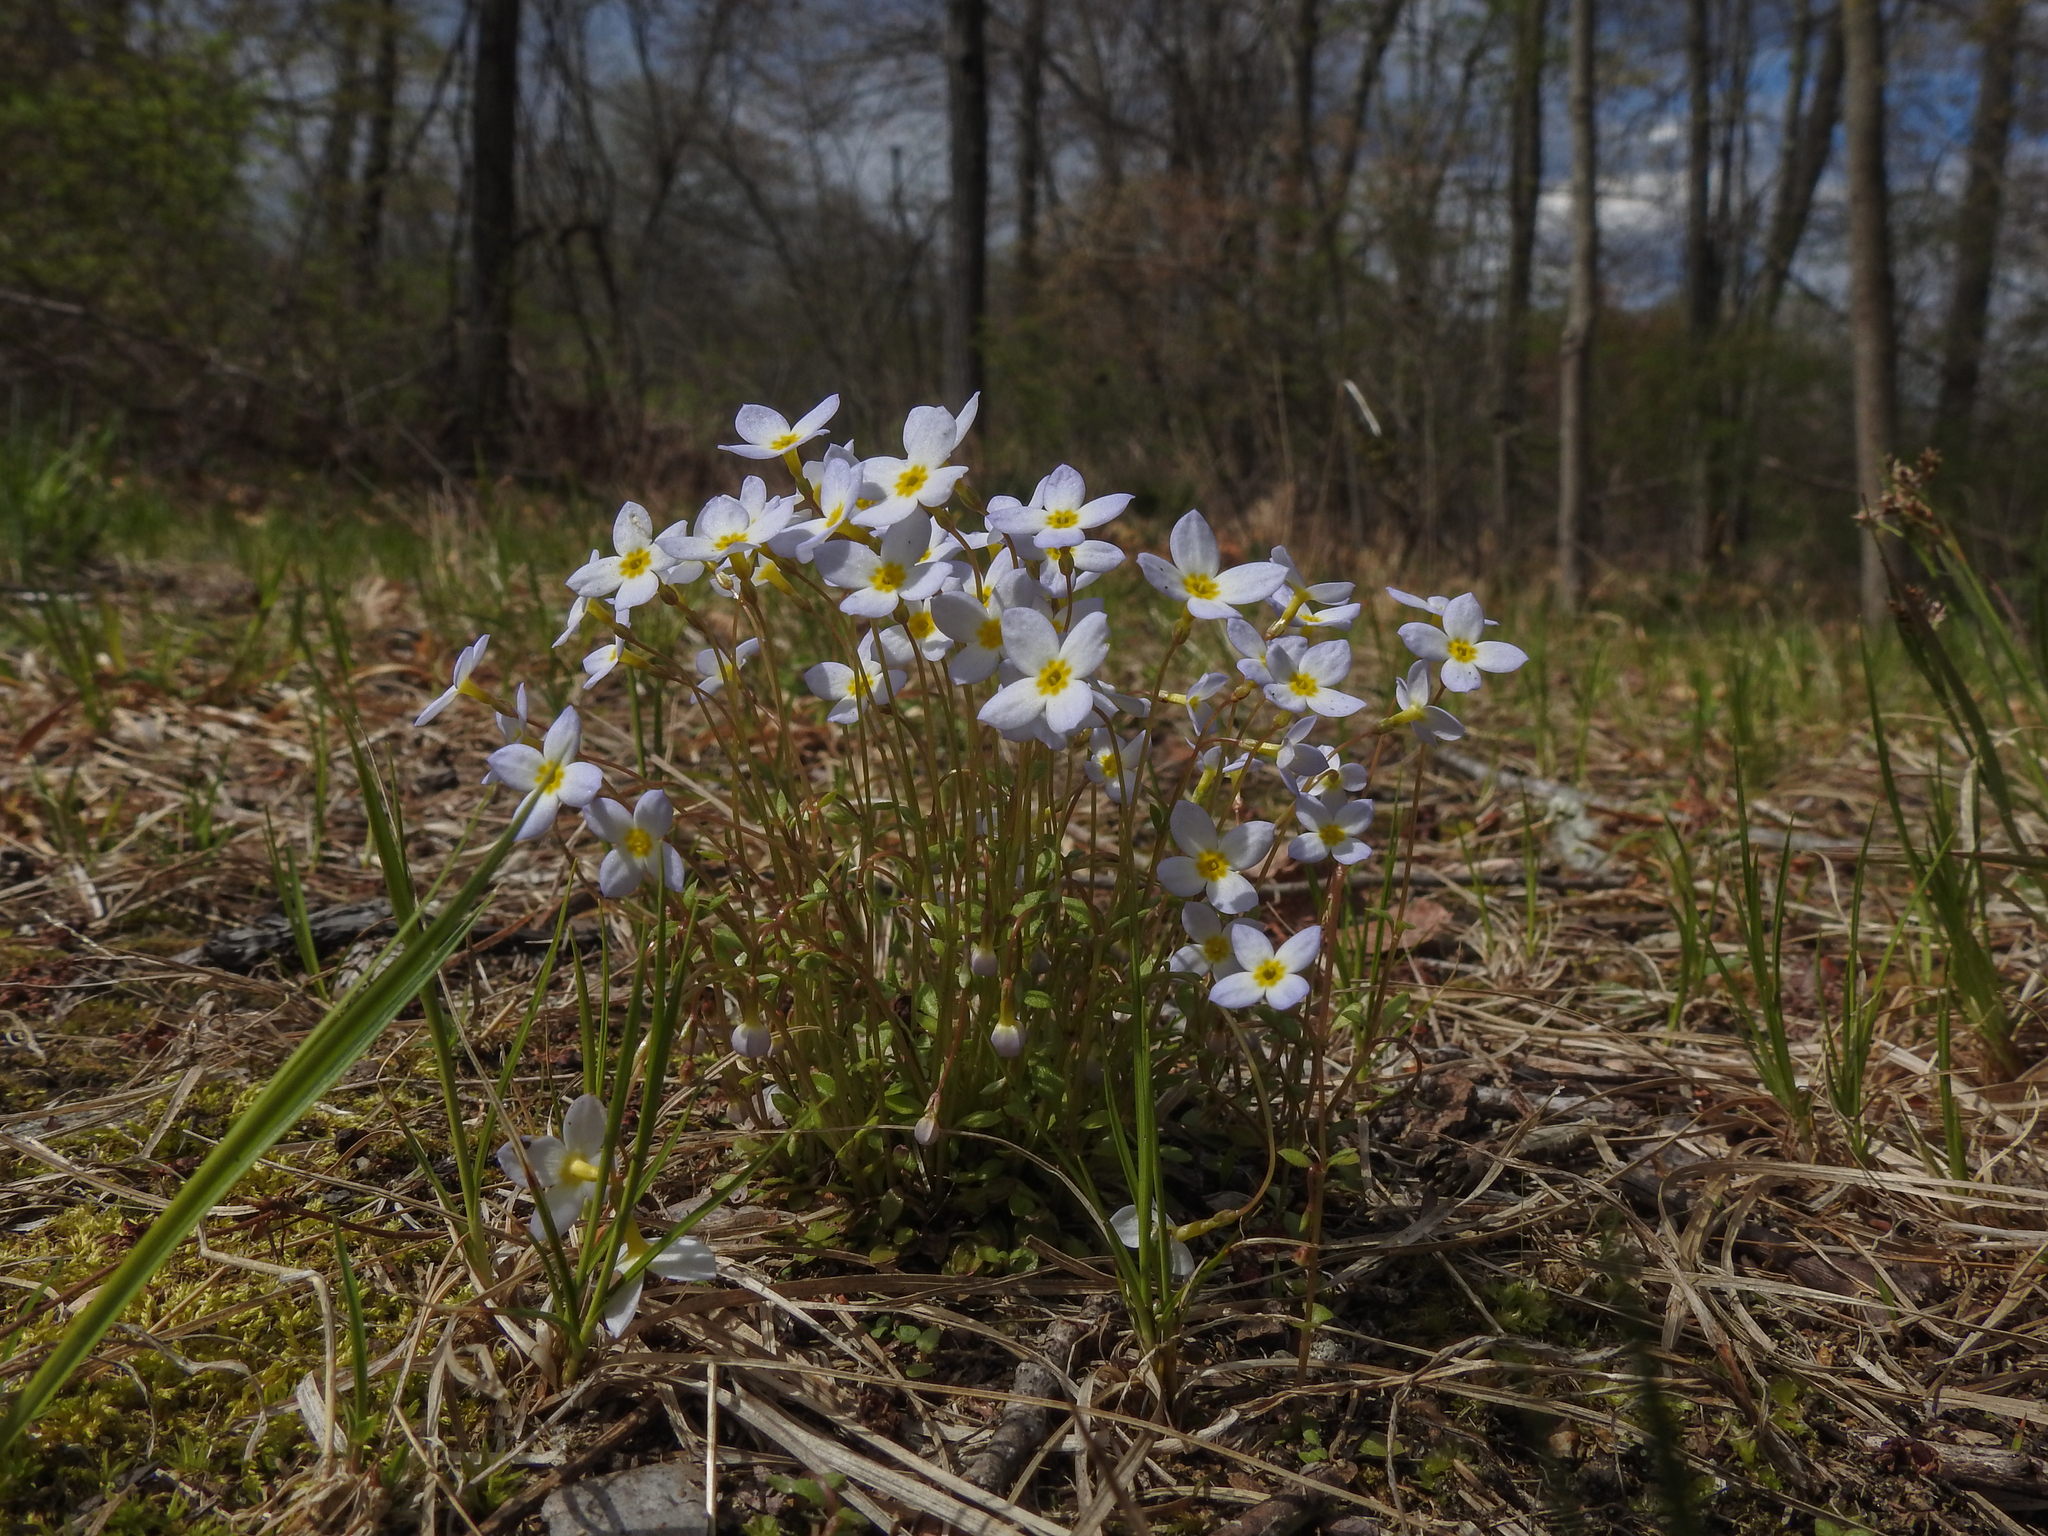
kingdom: Plantae
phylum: Tracheophyta
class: Magnoliopsida
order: Gentianales
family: Rubiaceae
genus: Houstonia
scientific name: Houstonia caerulea
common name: Bluets
